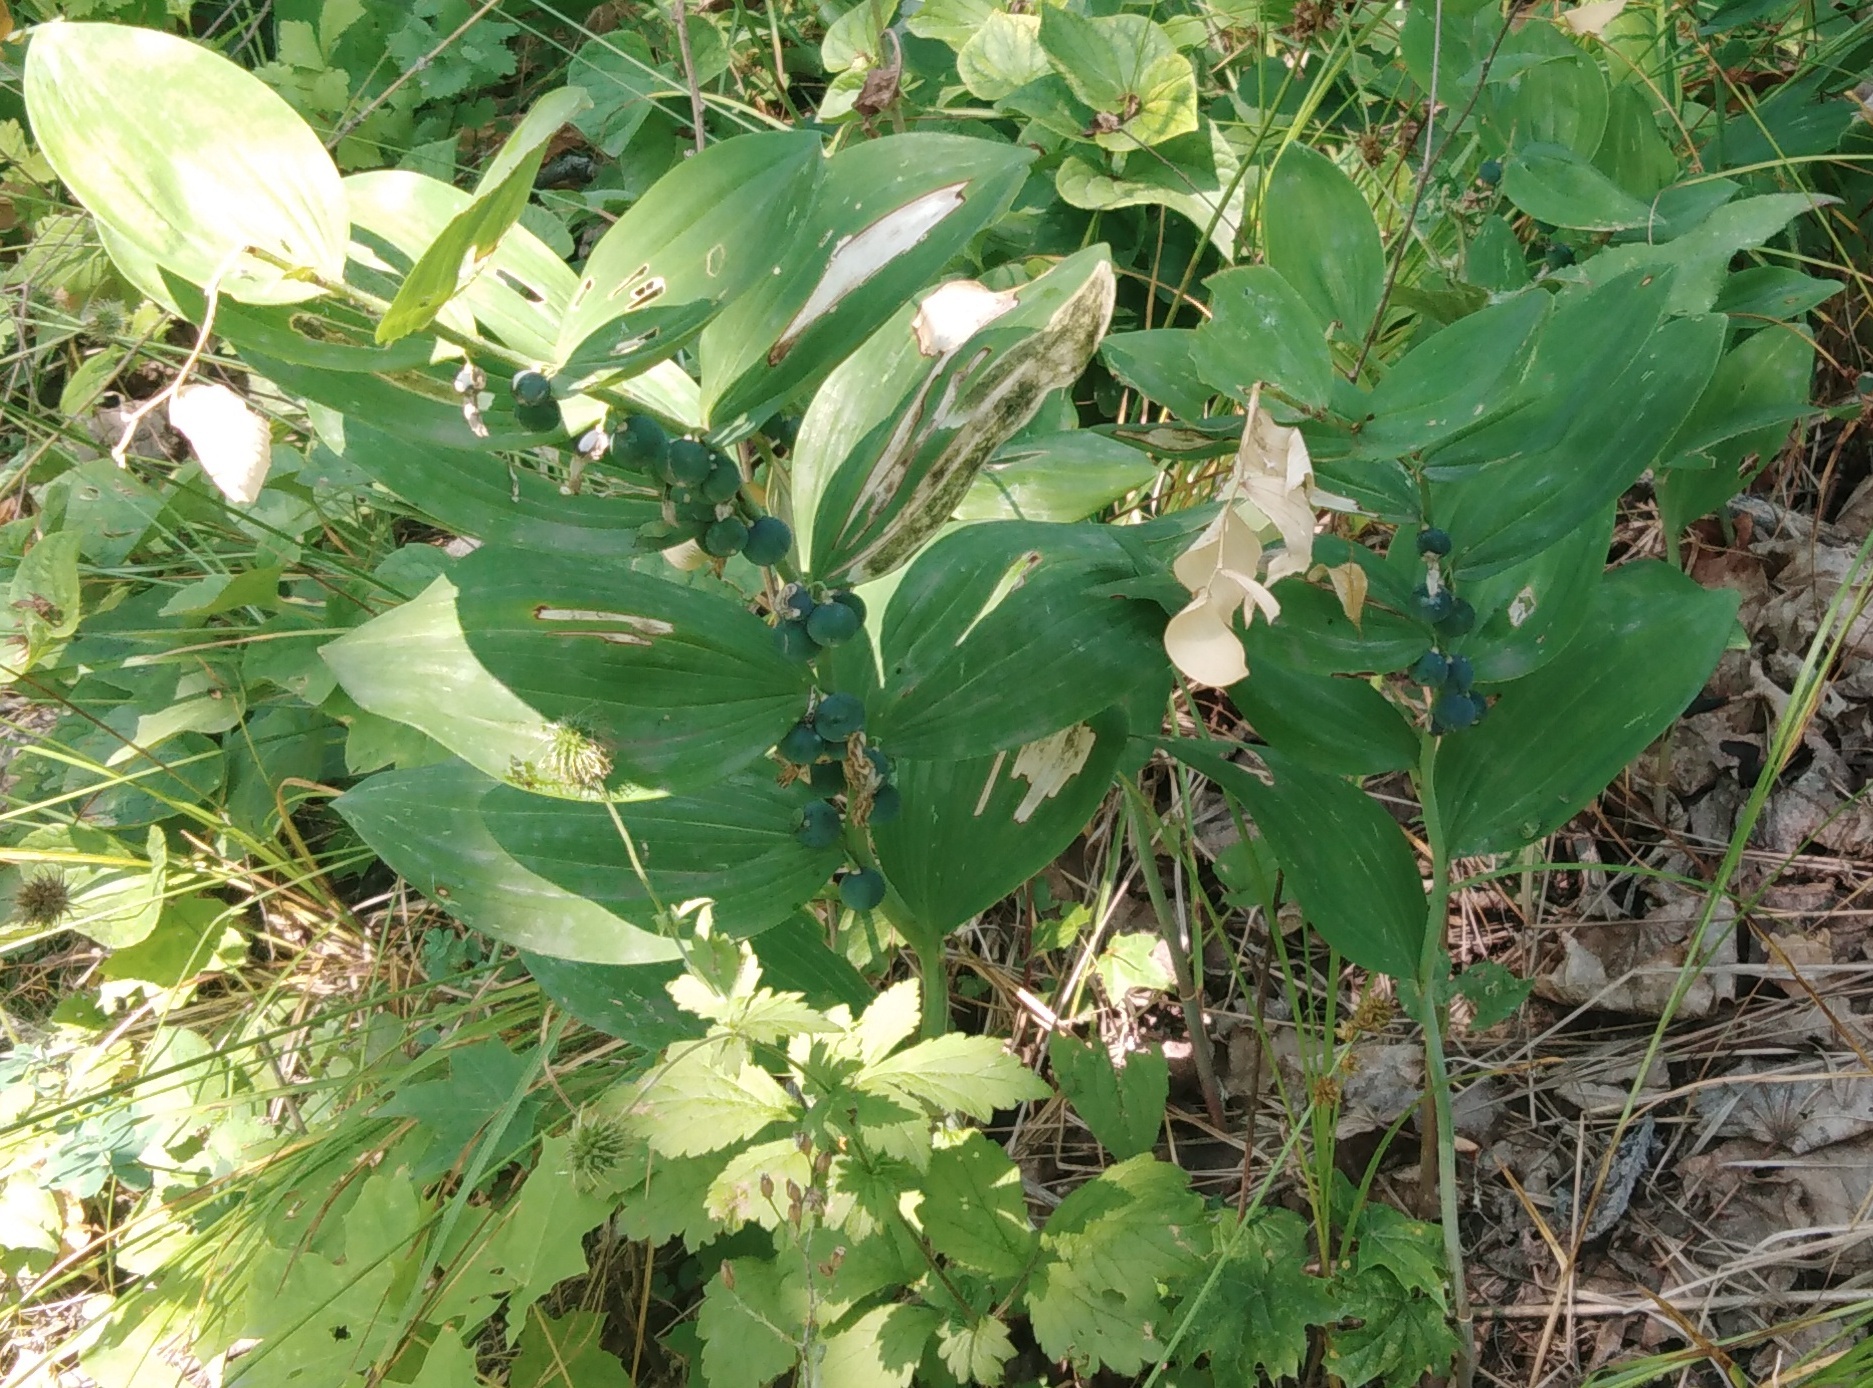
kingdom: Plantae
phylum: Tracheophyta
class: Liliopsida
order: Asparagales
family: Asparagaceae
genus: Polygonatum
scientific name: Polygonatum multiflorum
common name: Solomon's-seal
